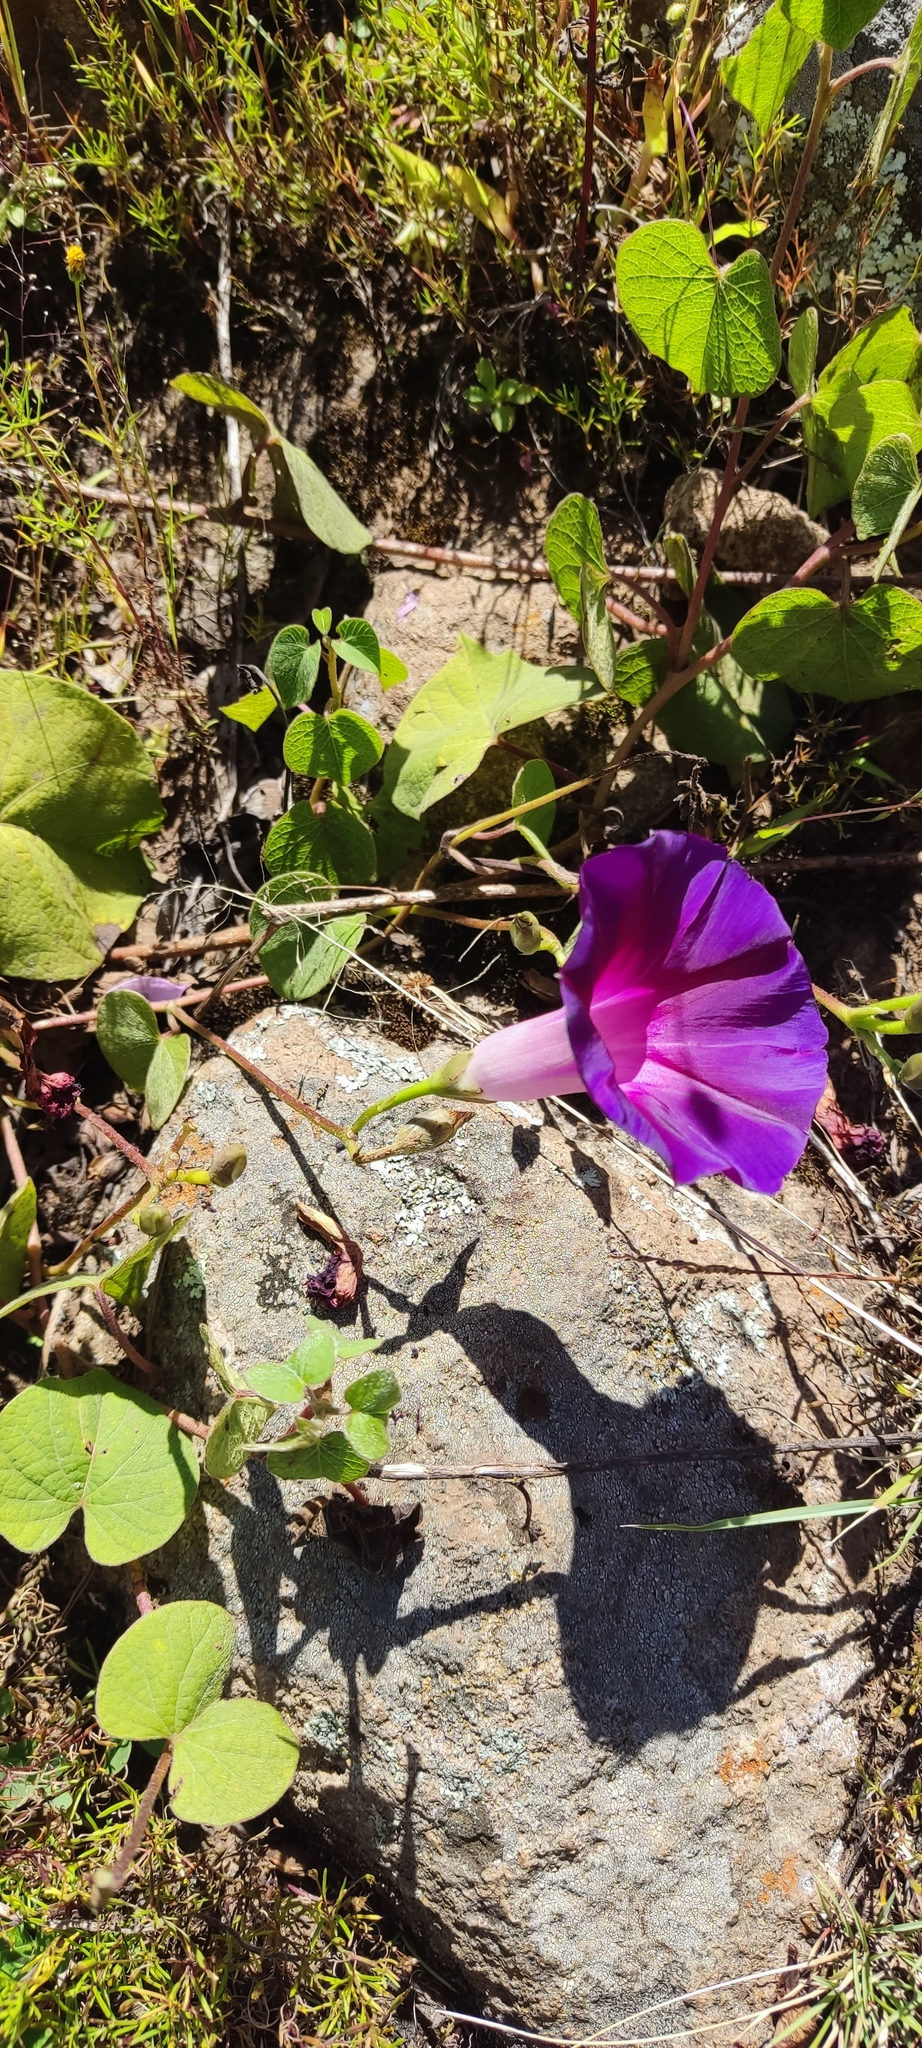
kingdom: Plantae
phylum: Tracheophyta
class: Magnoliopsida
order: Solanales
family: Convolvulaceae
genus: Ipomoea
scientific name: Ipomoea orizabensis
